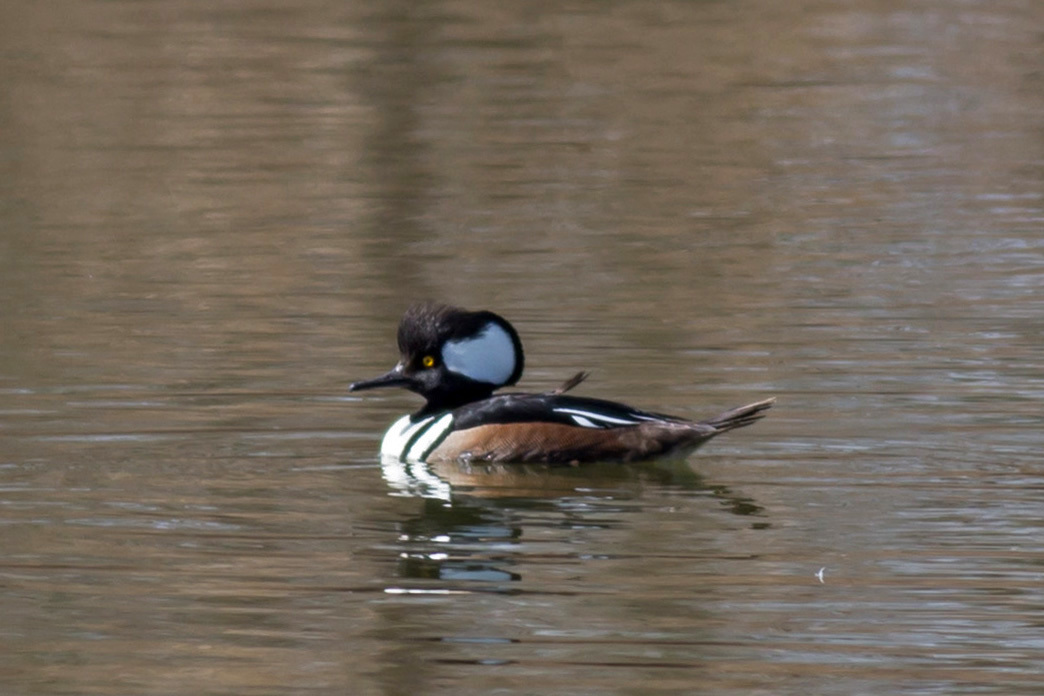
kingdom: Animalia
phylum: Chordata
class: Aves
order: Anseriformes
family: Anatidae
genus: Lophodytes
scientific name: Lophodytes cucullatus
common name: Hooded merganser
